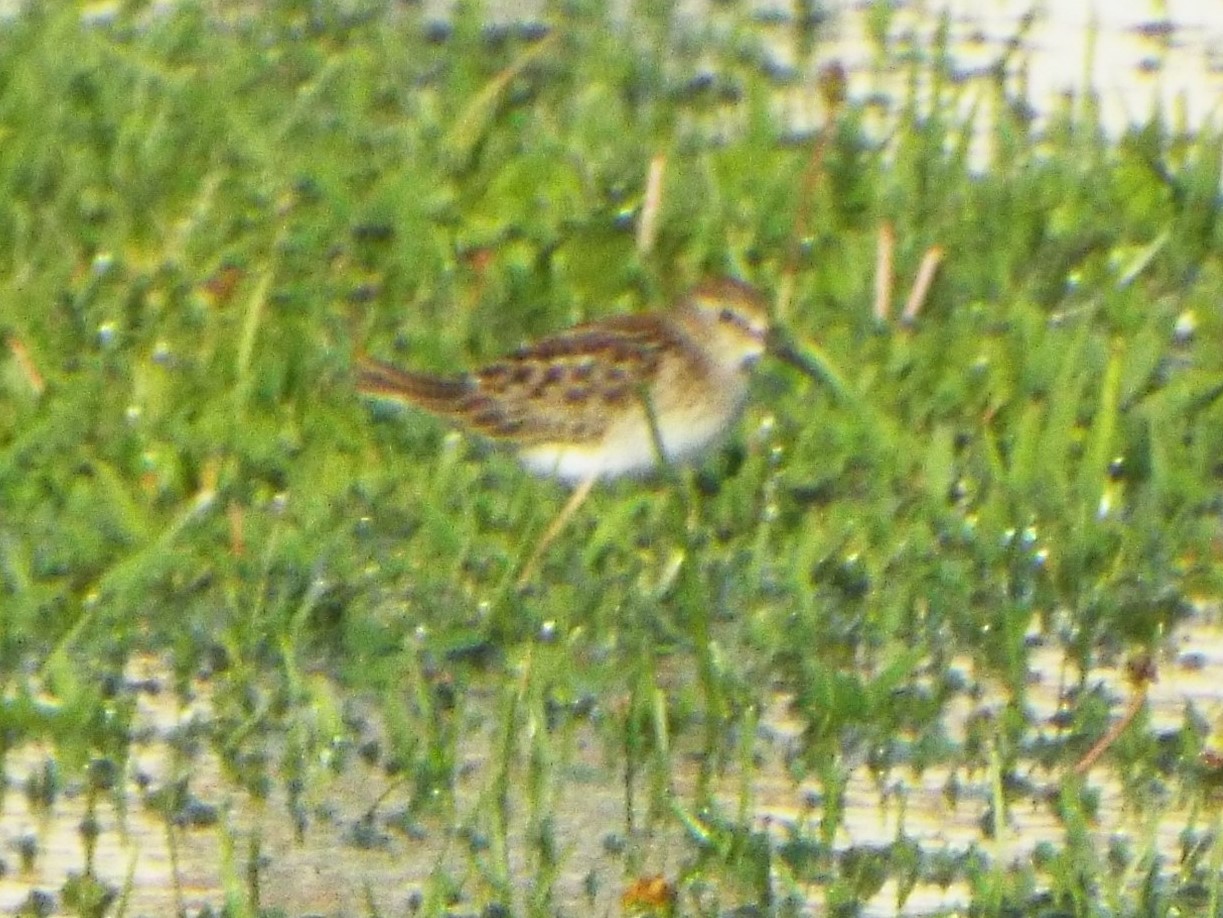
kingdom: Animalia
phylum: Chordata
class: Aves
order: Charadriiformes
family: Scolopacidae
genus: Calidris
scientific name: Calidris minutilla
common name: Least sandpiper
